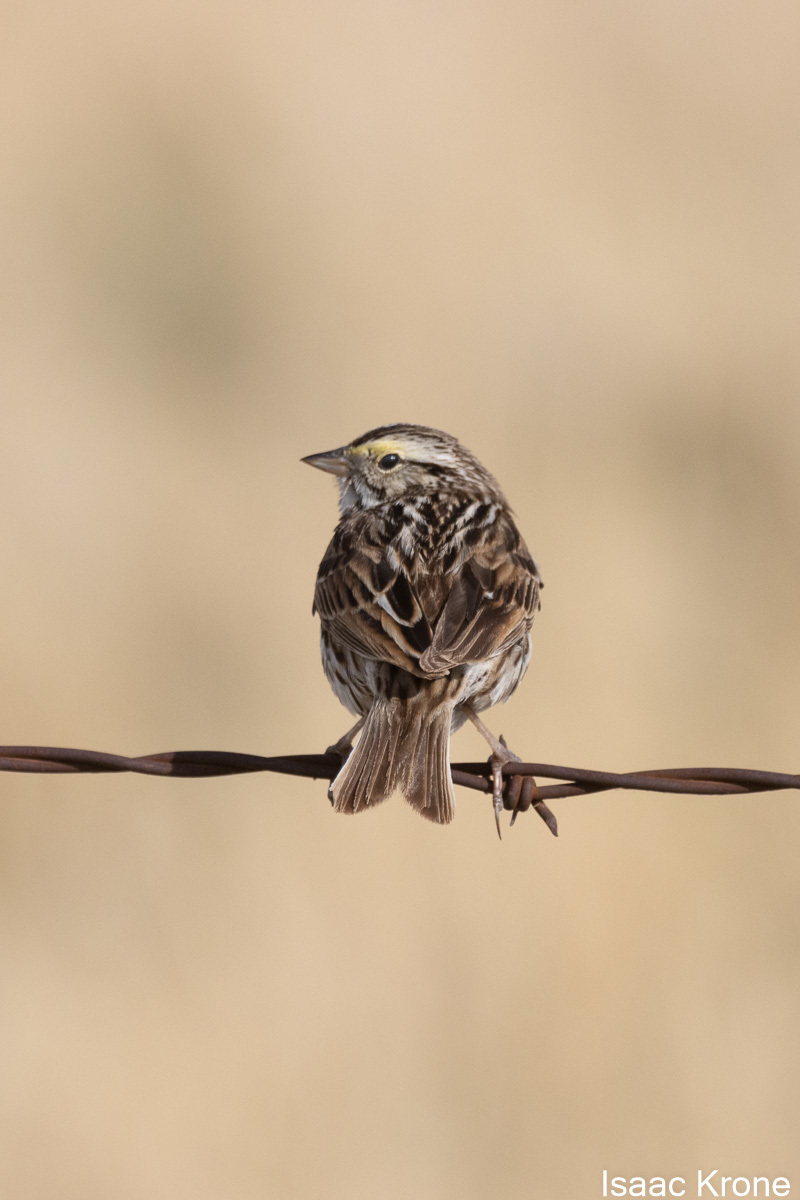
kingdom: Animalia
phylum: Chordata
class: Aves
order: Passeriformes
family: Passerellidae
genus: Passerculus
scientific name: Passerculus sandwichensis
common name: Savannah sparrow
